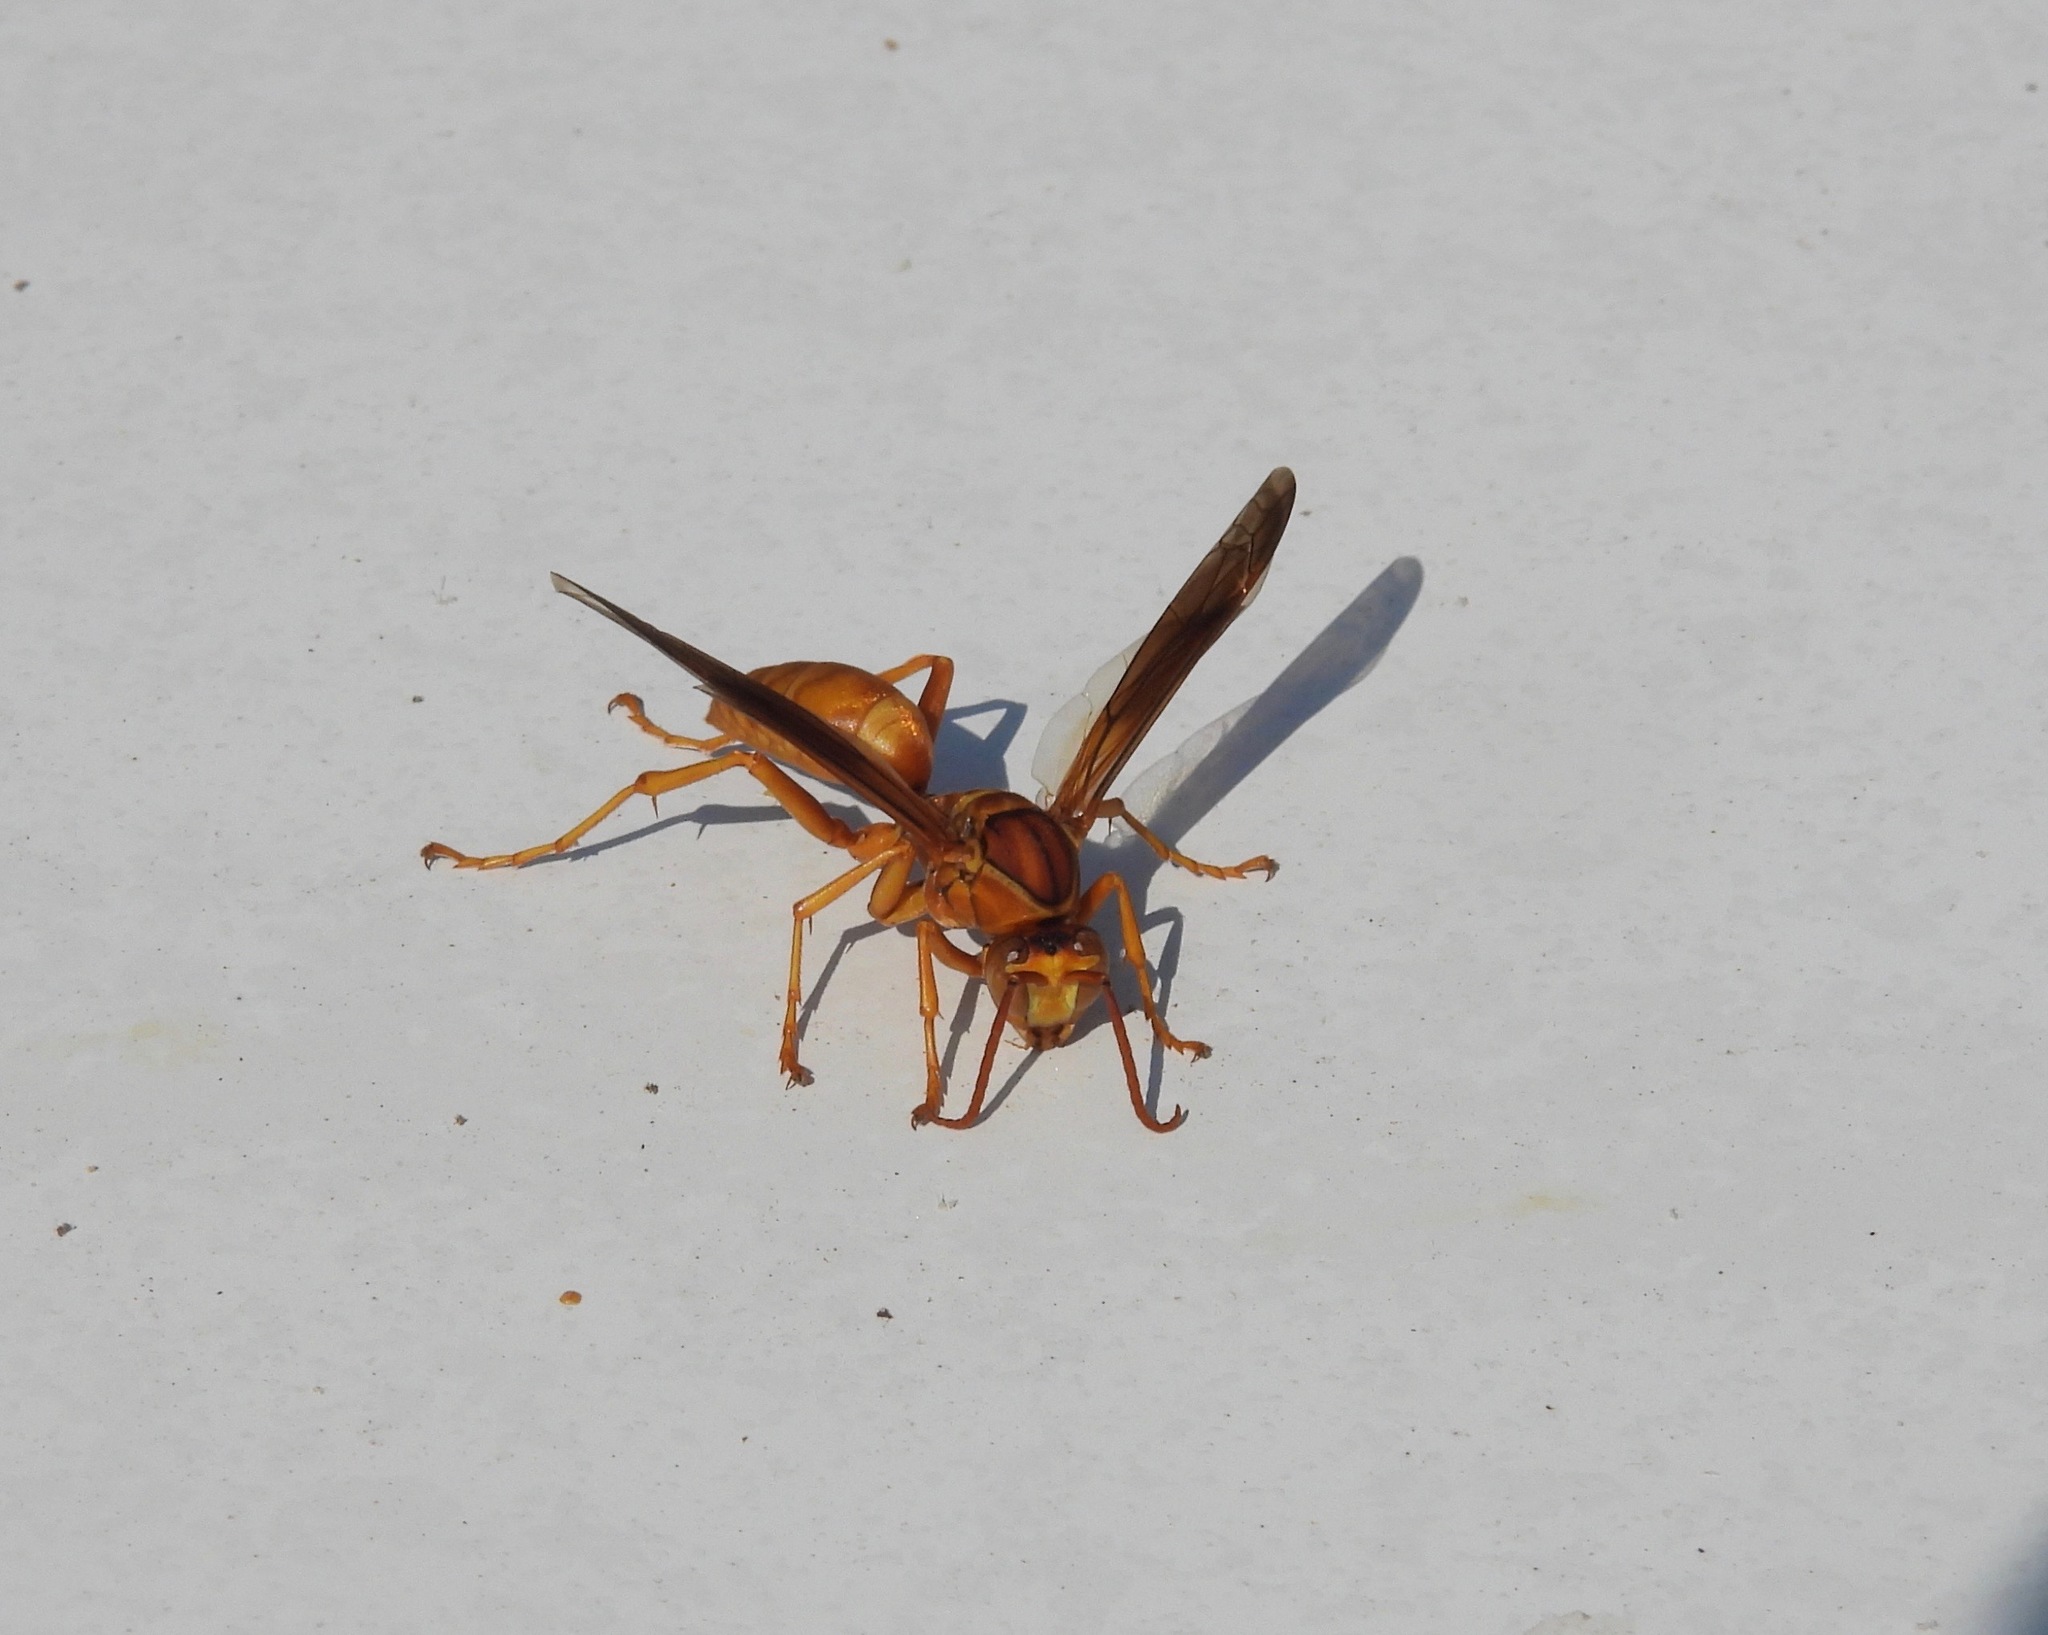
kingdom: Animalia
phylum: Arthropoda
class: Insecta
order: Hymenoptera
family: Eumenidae
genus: Polistes
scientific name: Polistes flavus
